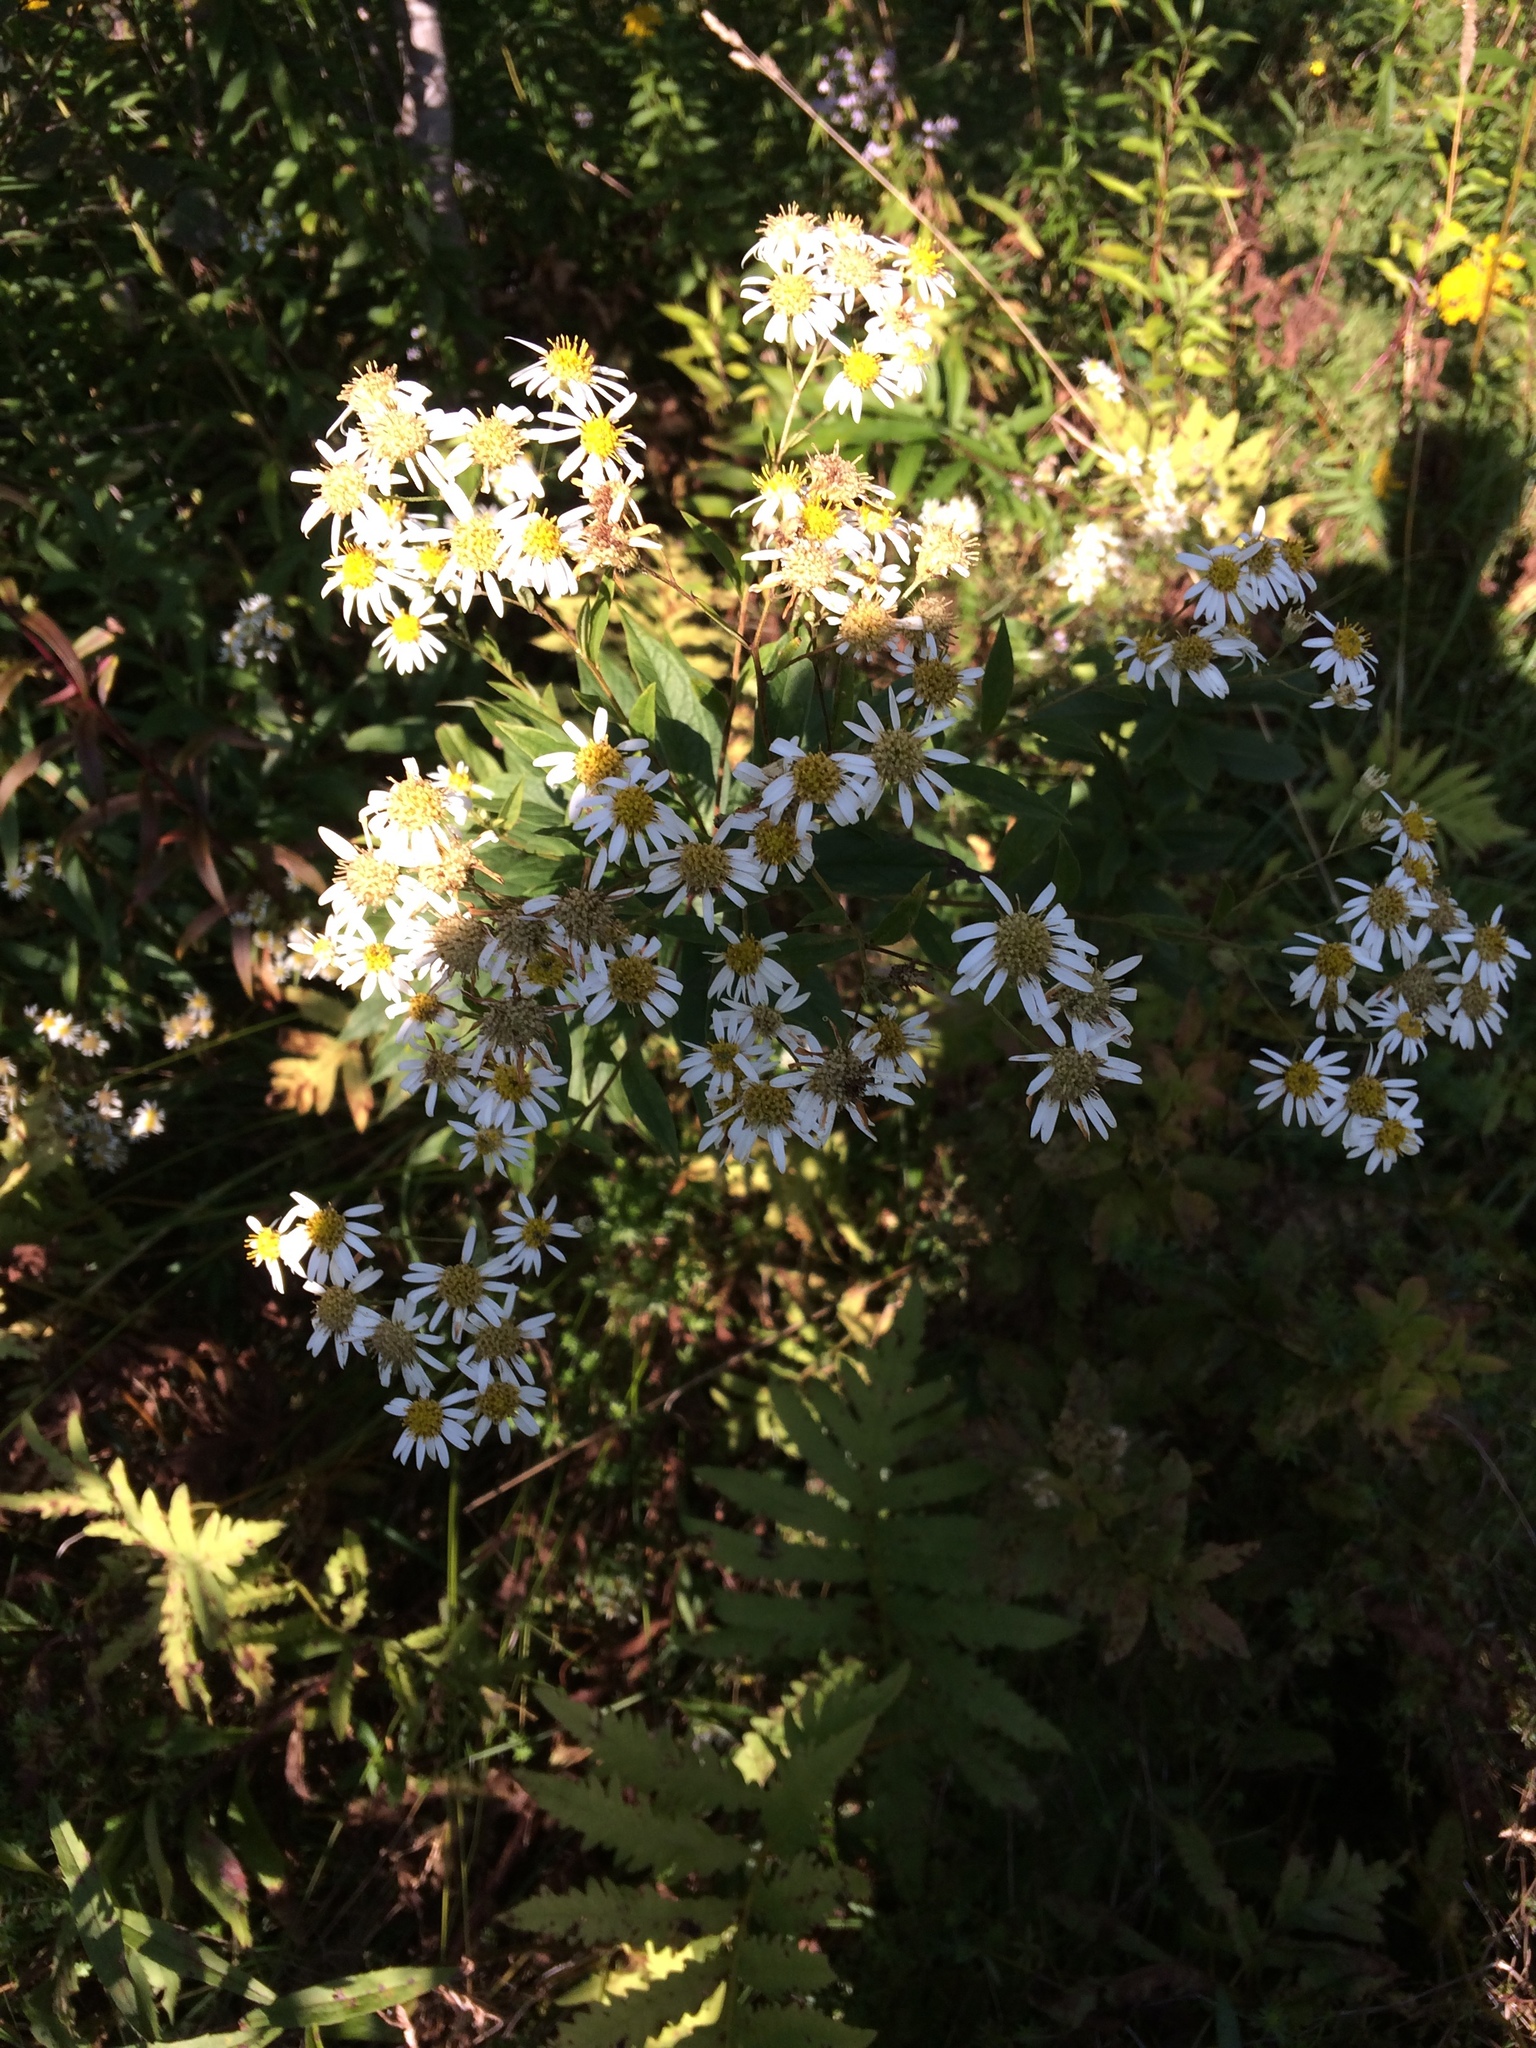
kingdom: Plantae
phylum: Tracheophyta
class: Magnoliopsida
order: Asterales
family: Asteraceae
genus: Doellingeria
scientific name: Doellingeria umbellata
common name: Flat-top white aster
